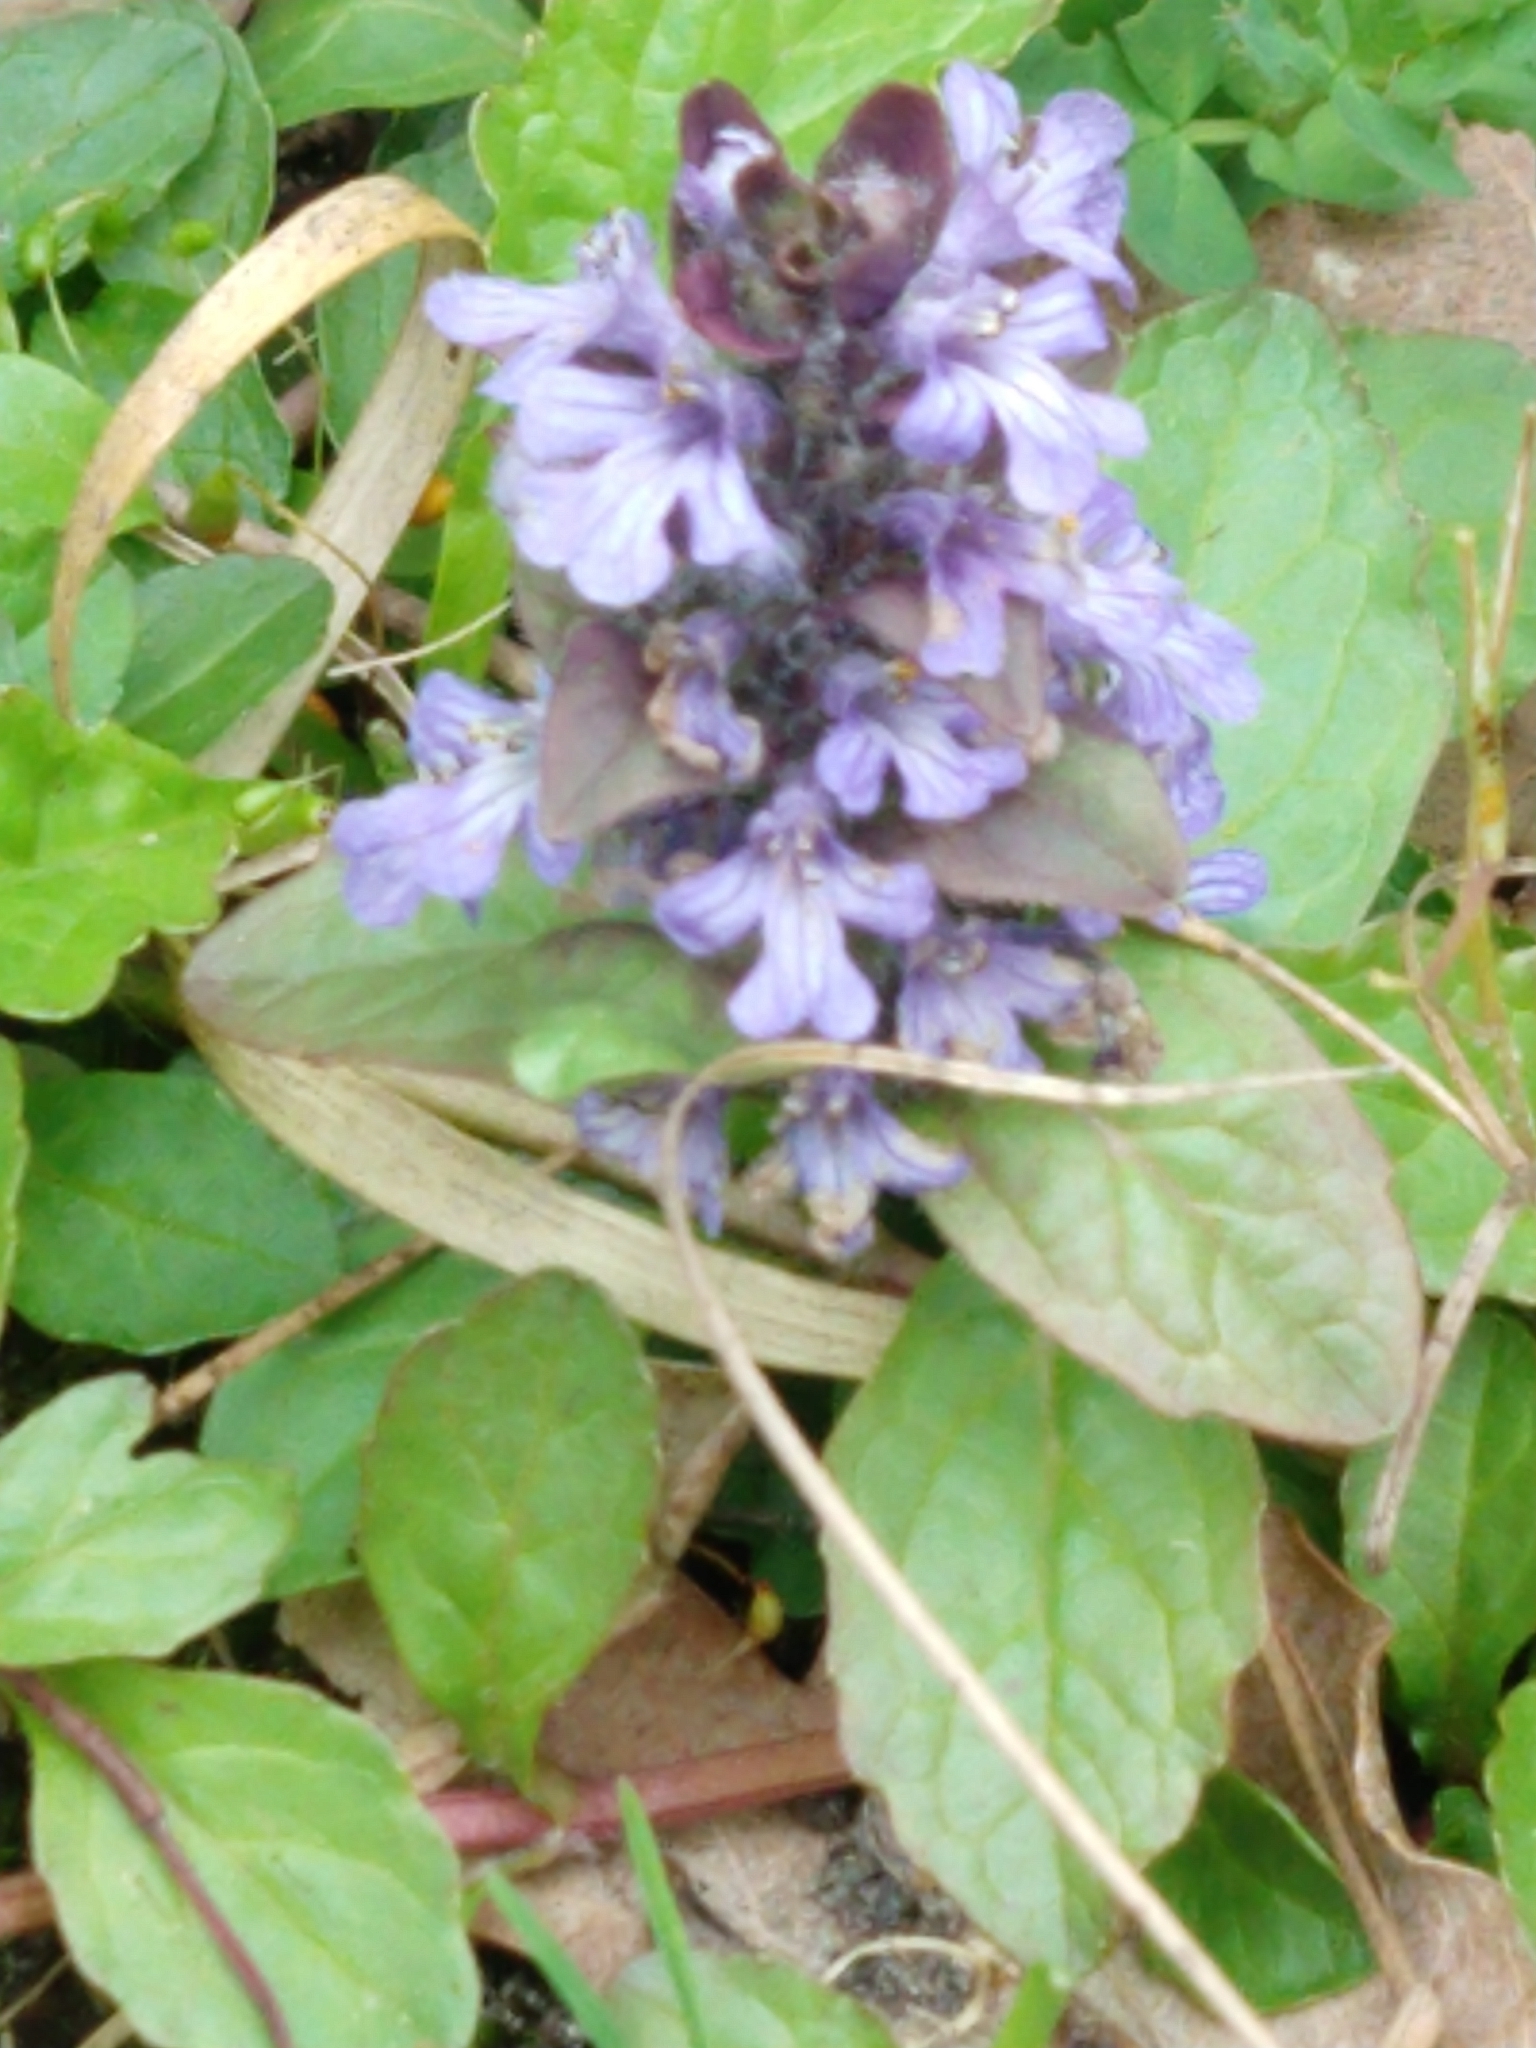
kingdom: Plantae
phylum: Tracheophyta
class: Magnoliopsida
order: Lamiales
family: Lamiaceae
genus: Ajuga
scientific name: Ajuga reptans
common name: Bugle
